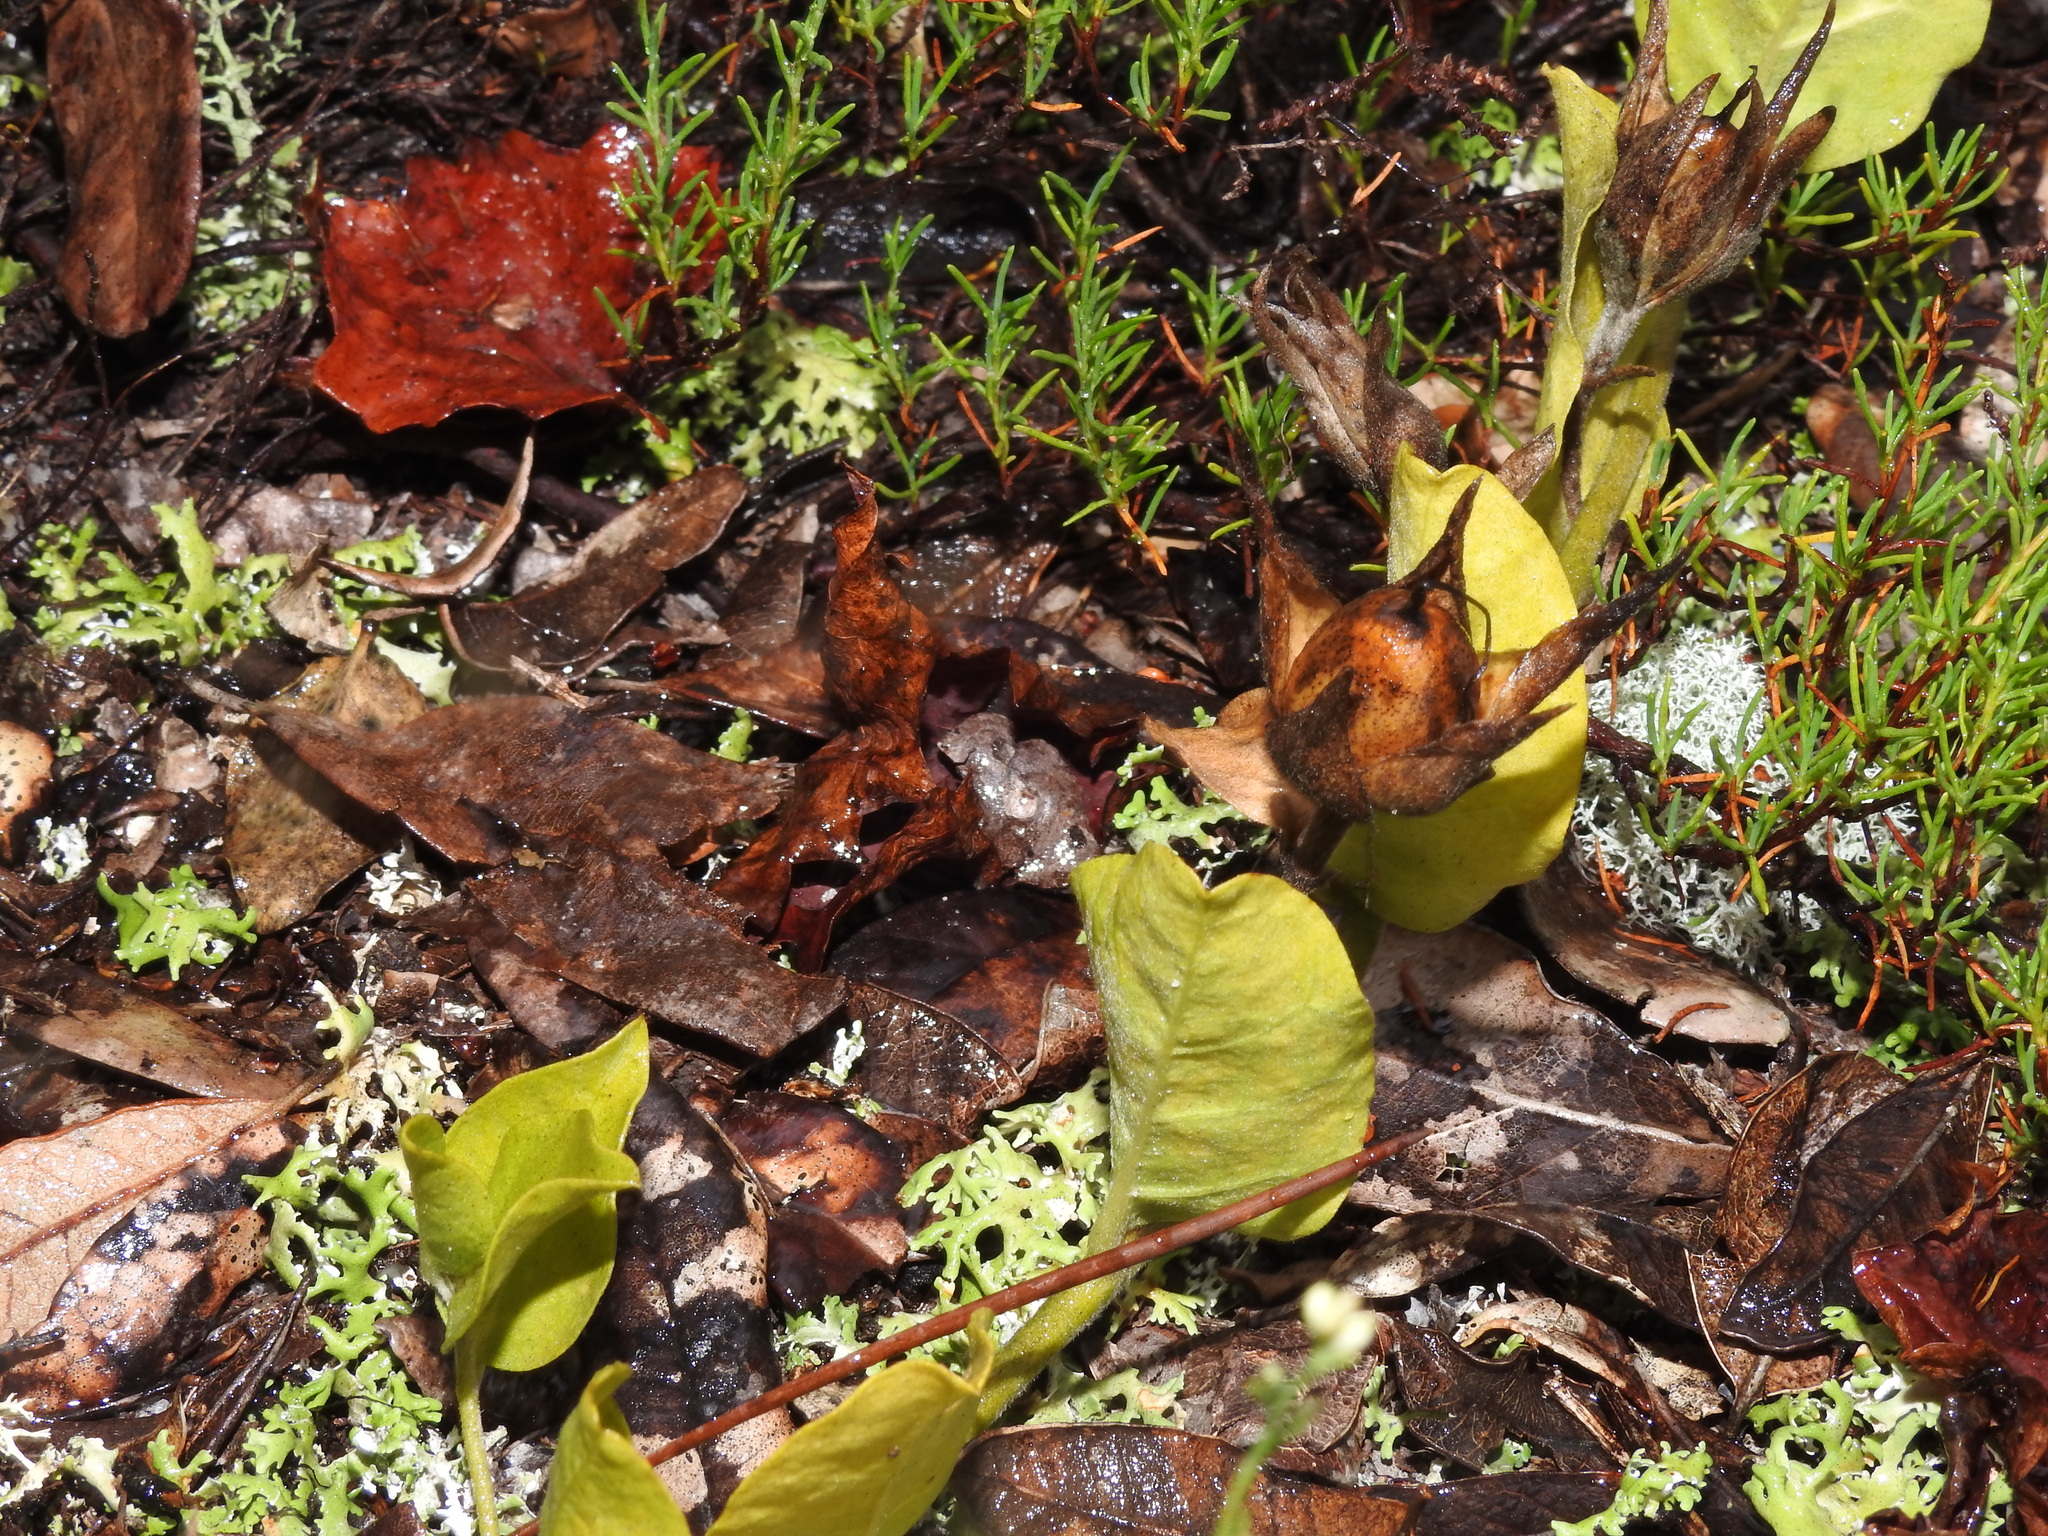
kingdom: Plantae
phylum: Tracheophyta
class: Magnoliopsida
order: Solanales
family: Convolvulaceae
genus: Bonamia
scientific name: Bonamia grandiflora
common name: Florida bonamia
